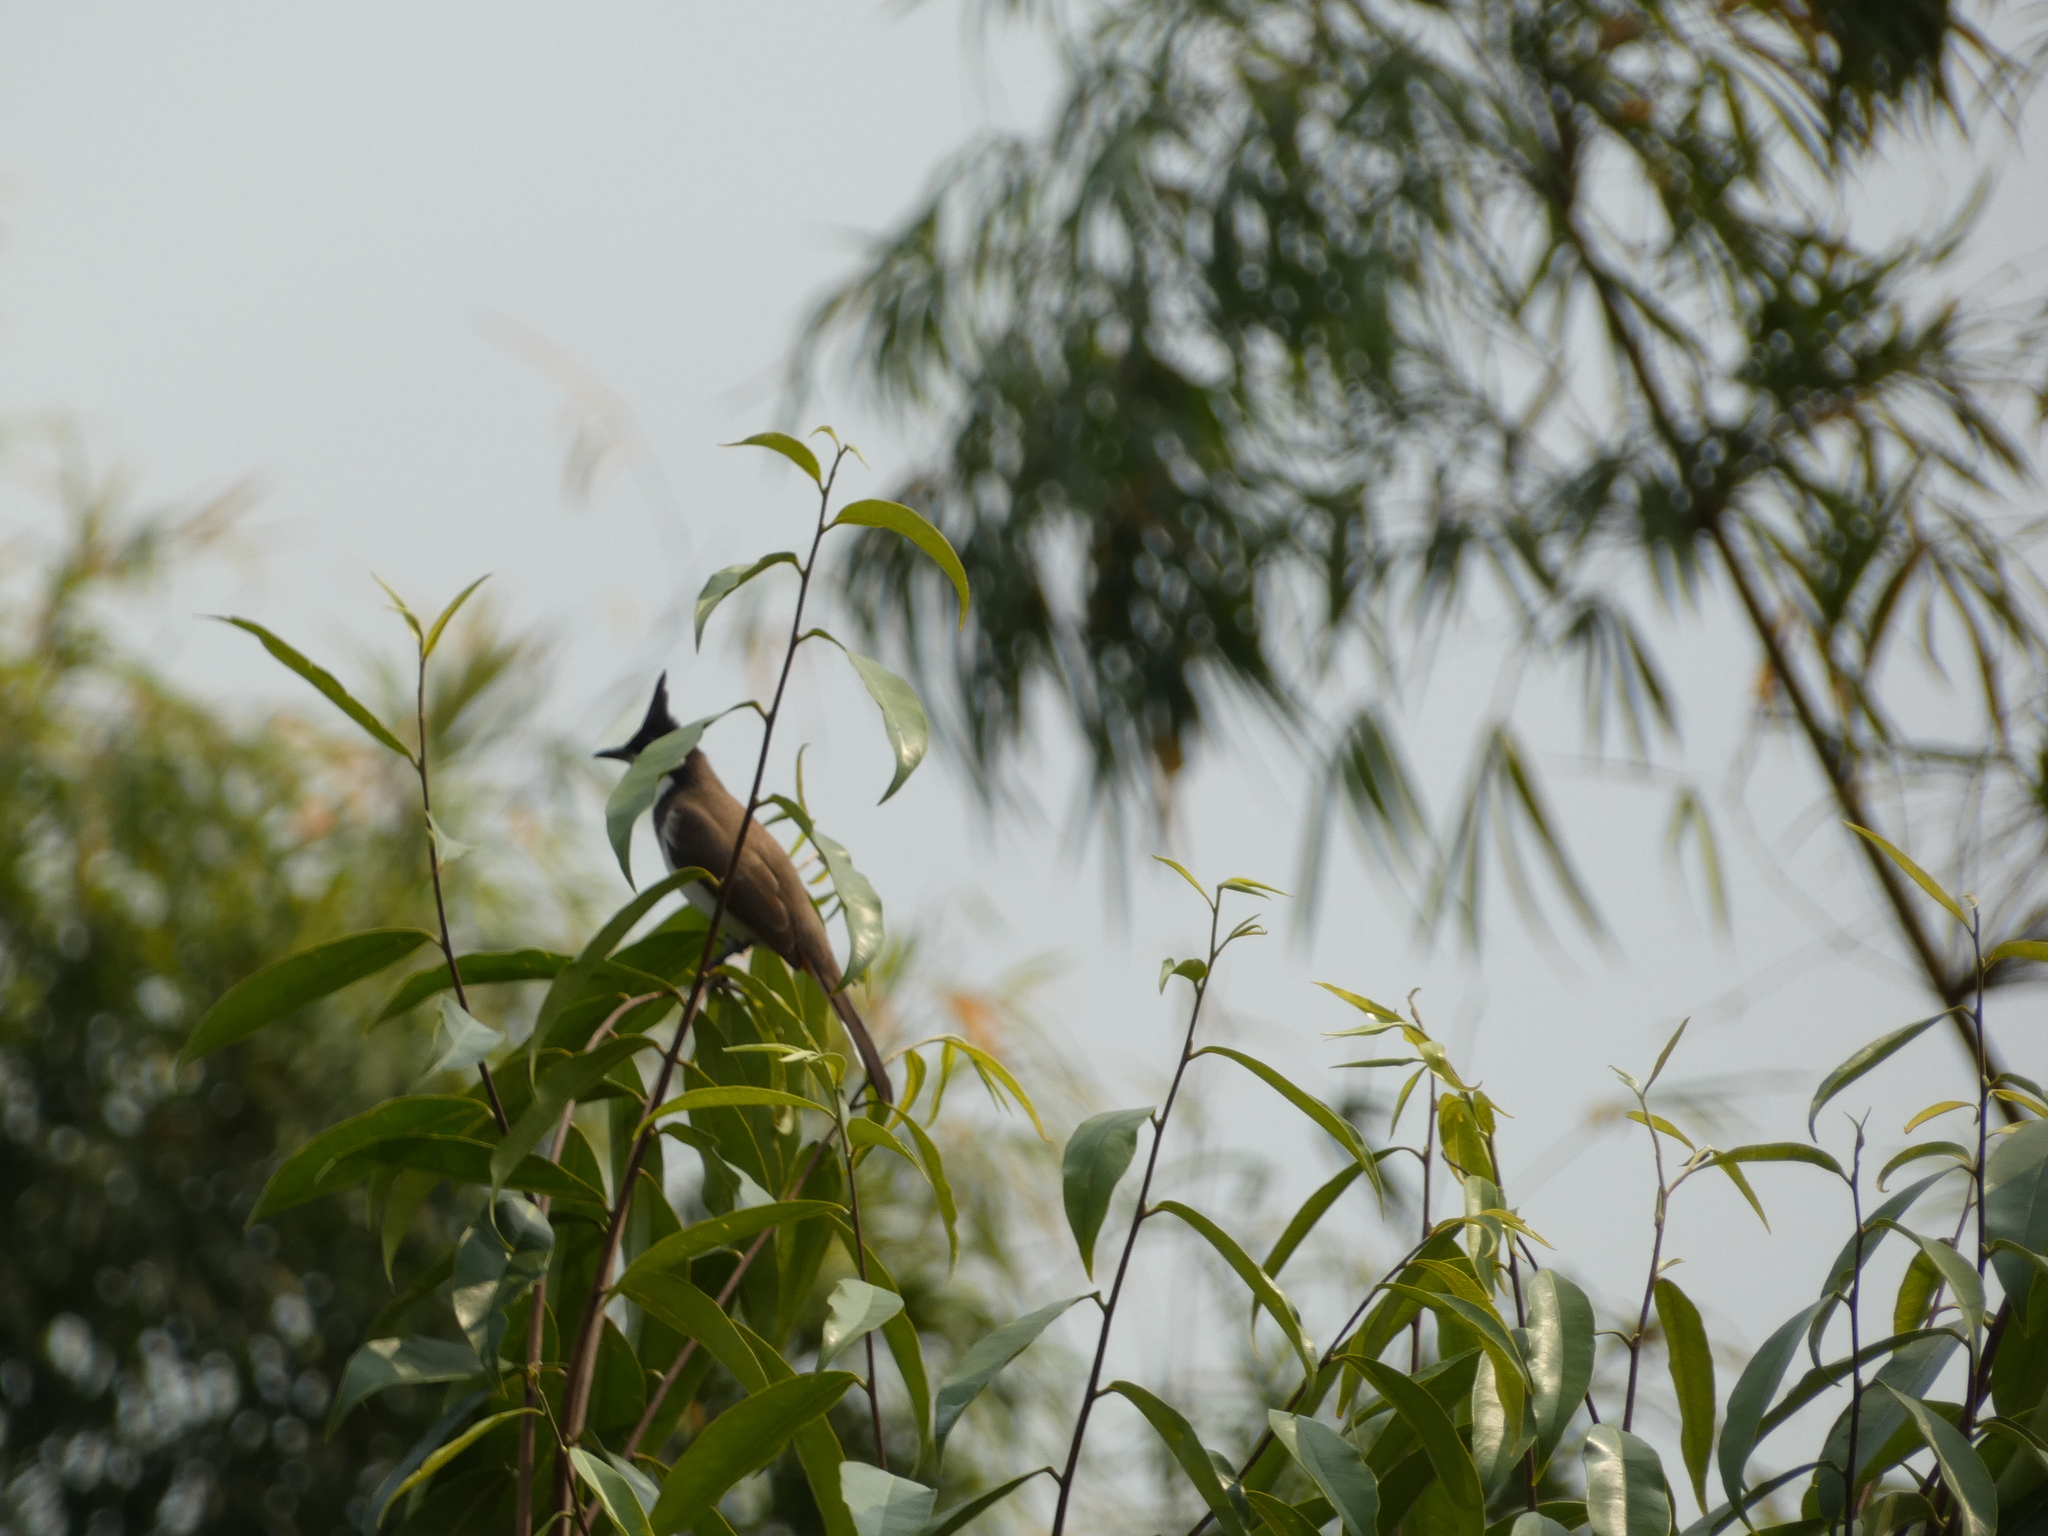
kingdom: Animalia
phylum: Chordata
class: Aves
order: Passeriformes
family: Pycnonotidae
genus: Pycnonotus
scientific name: Pycnonotus jocosus
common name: Red-whiskered bulbul
